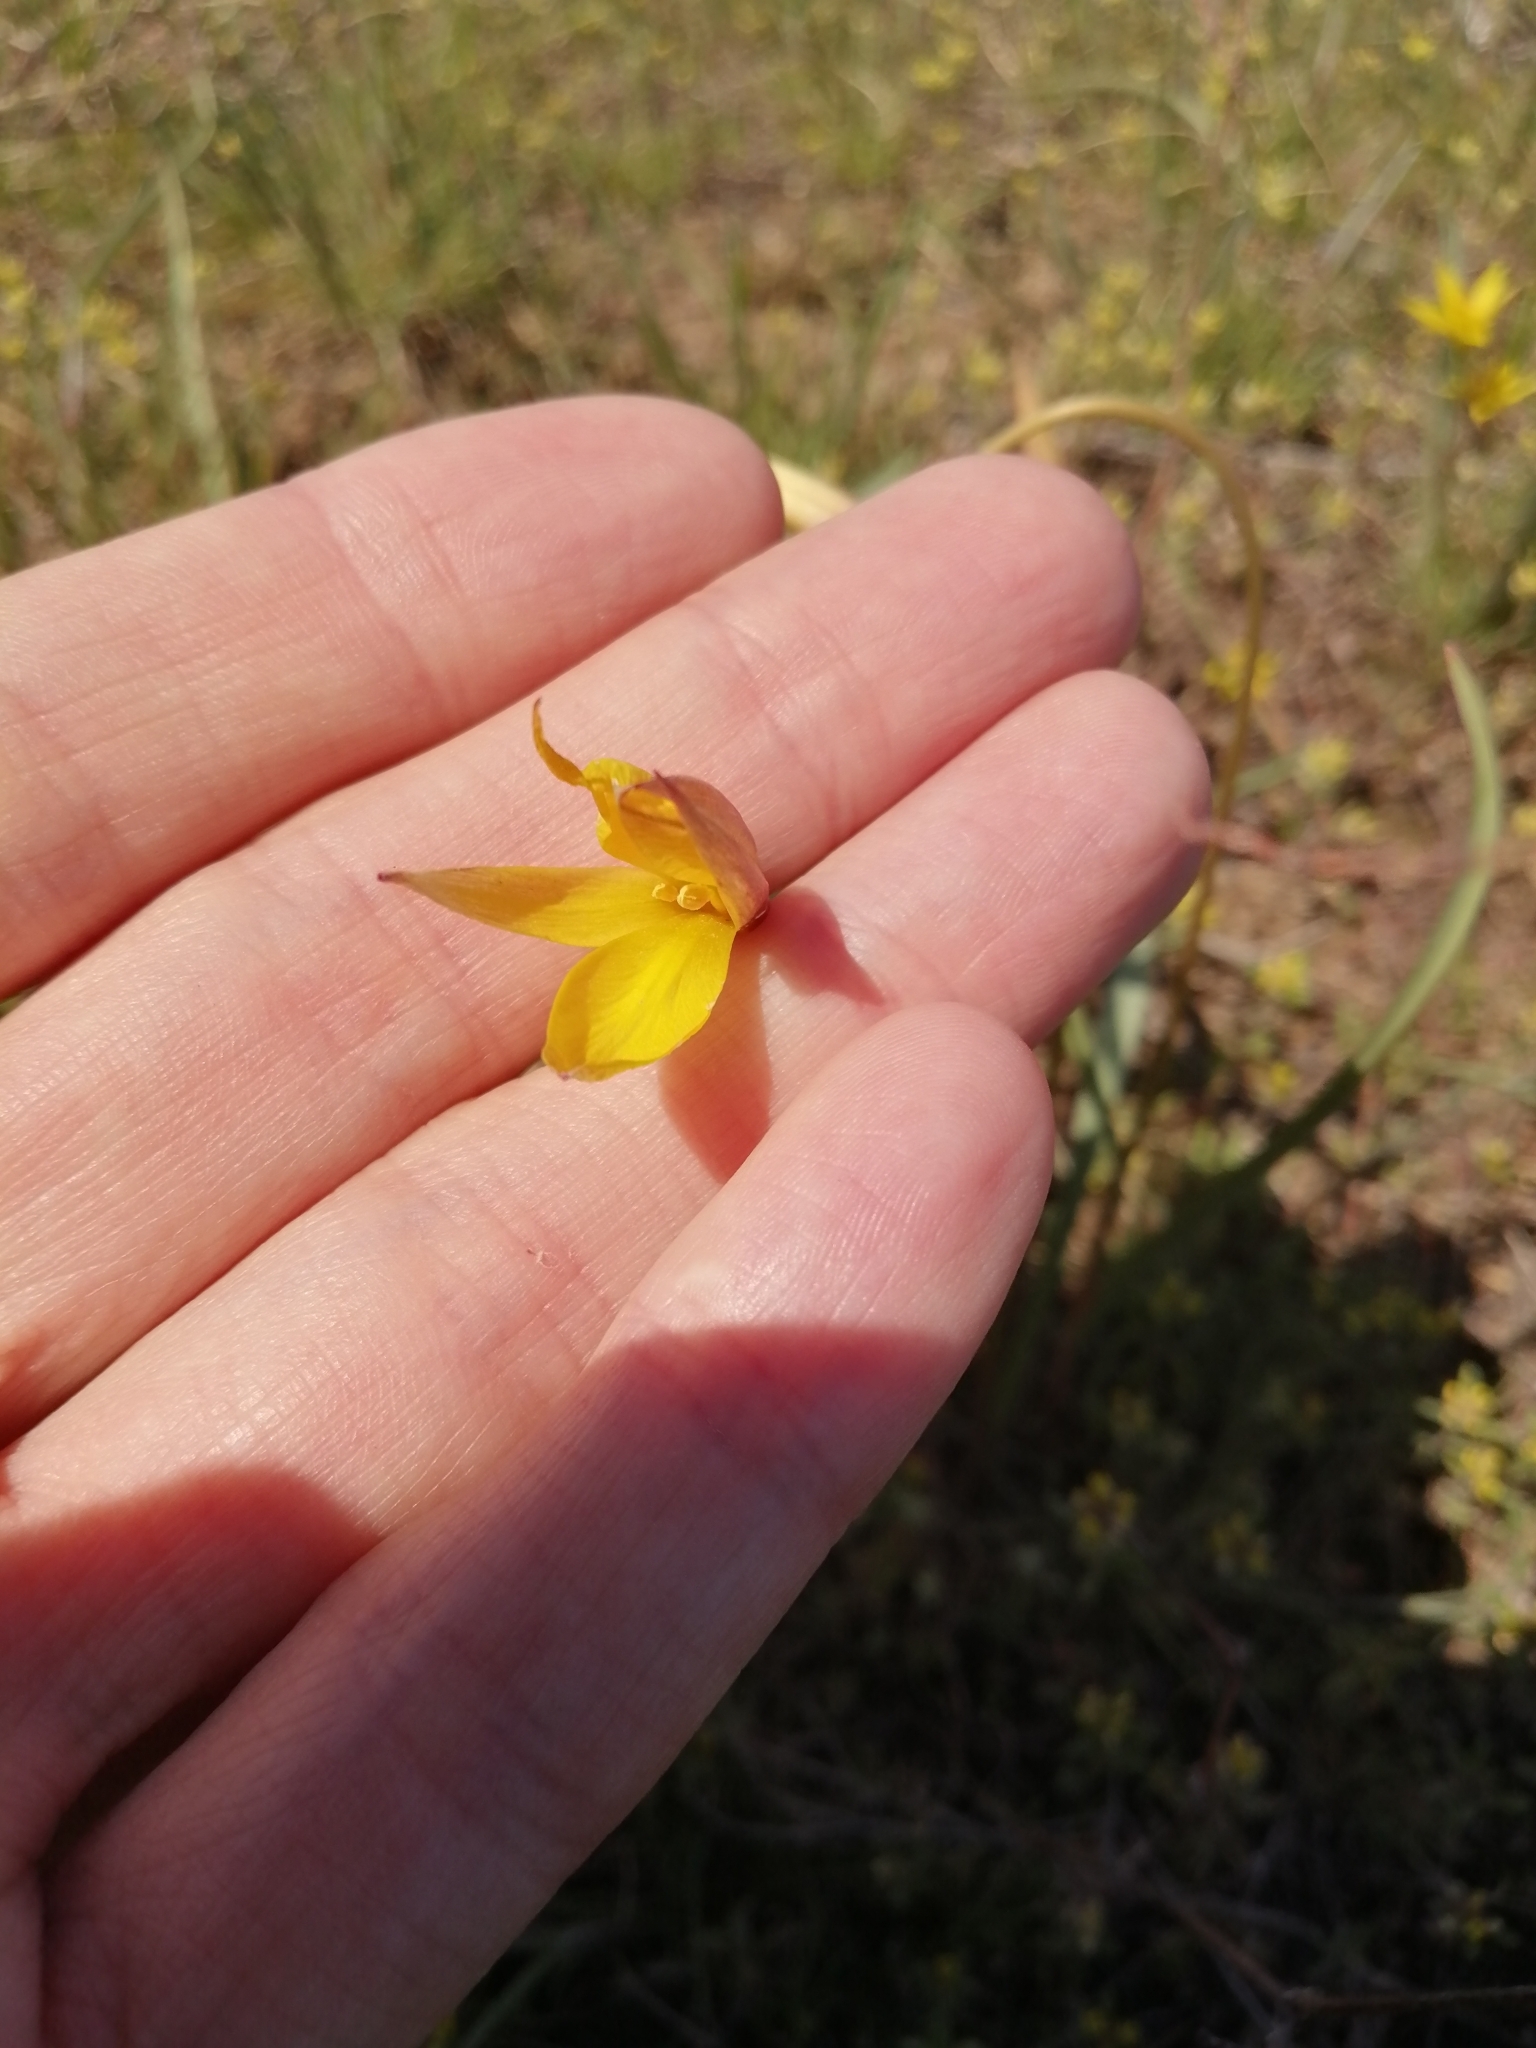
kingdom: Plantae
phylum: Tracheophyta
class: Liliopsida
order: Liliales
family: Liliaceae
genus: Tulipa
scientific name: Tulipa sylvestris
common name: Wild tulip
